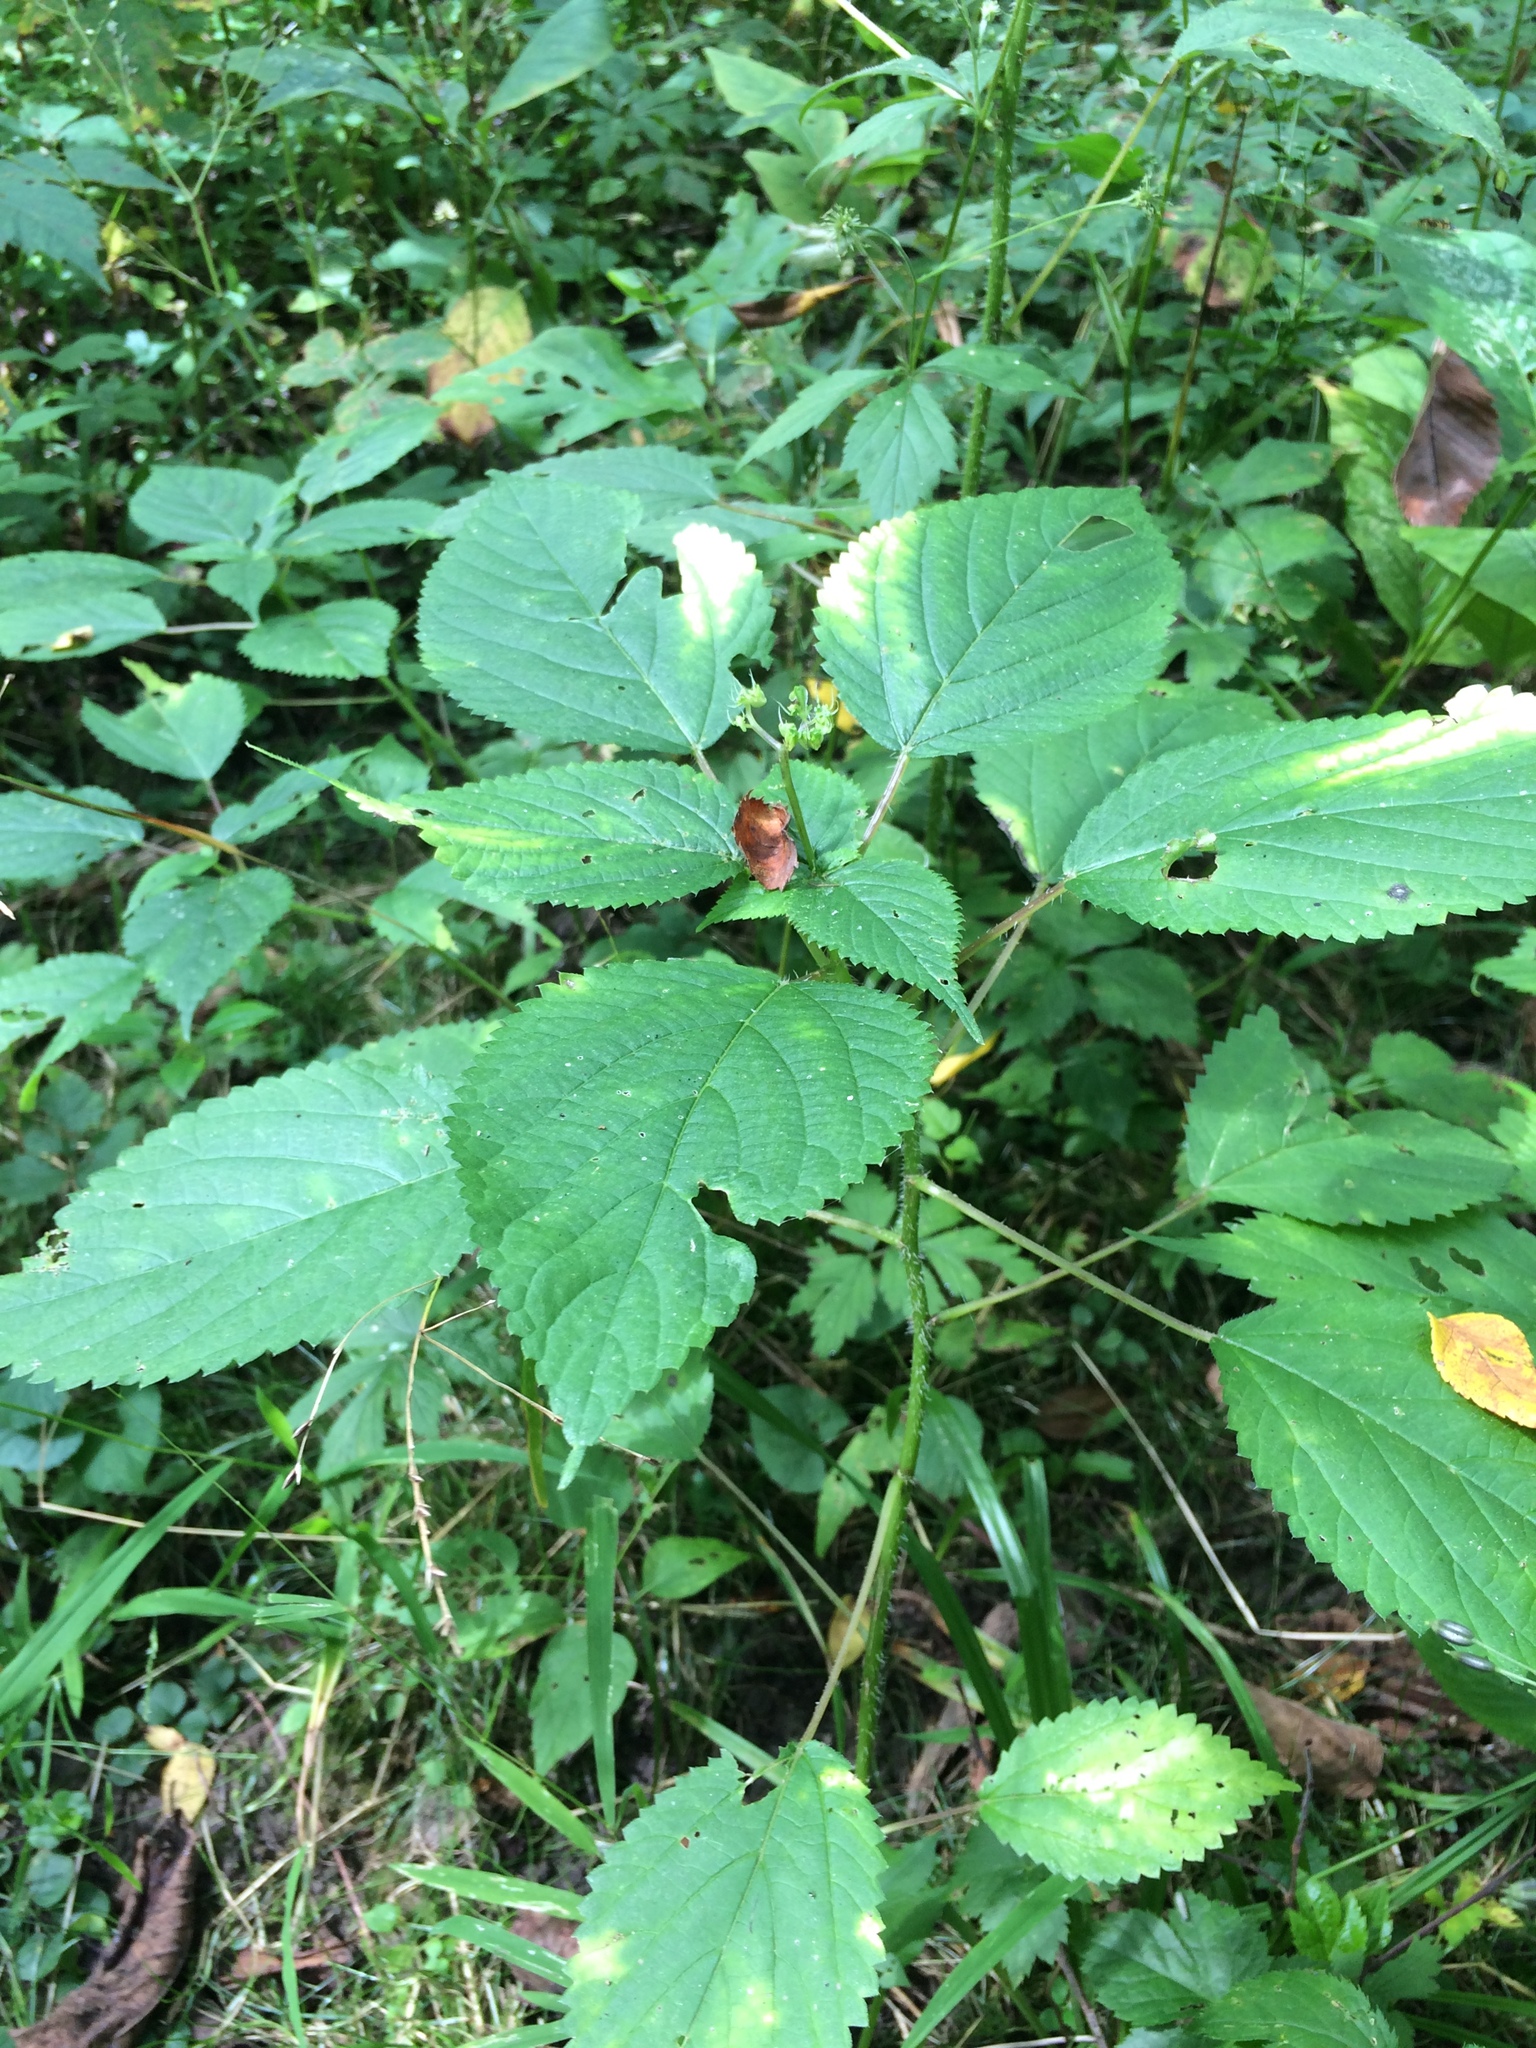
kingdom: Plantae
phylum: Tracheophyta
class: Magnoliopsida
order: Rosales
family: Urticaceae
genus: Laportea
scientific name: Laportea canadensis
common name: Canada nettle
